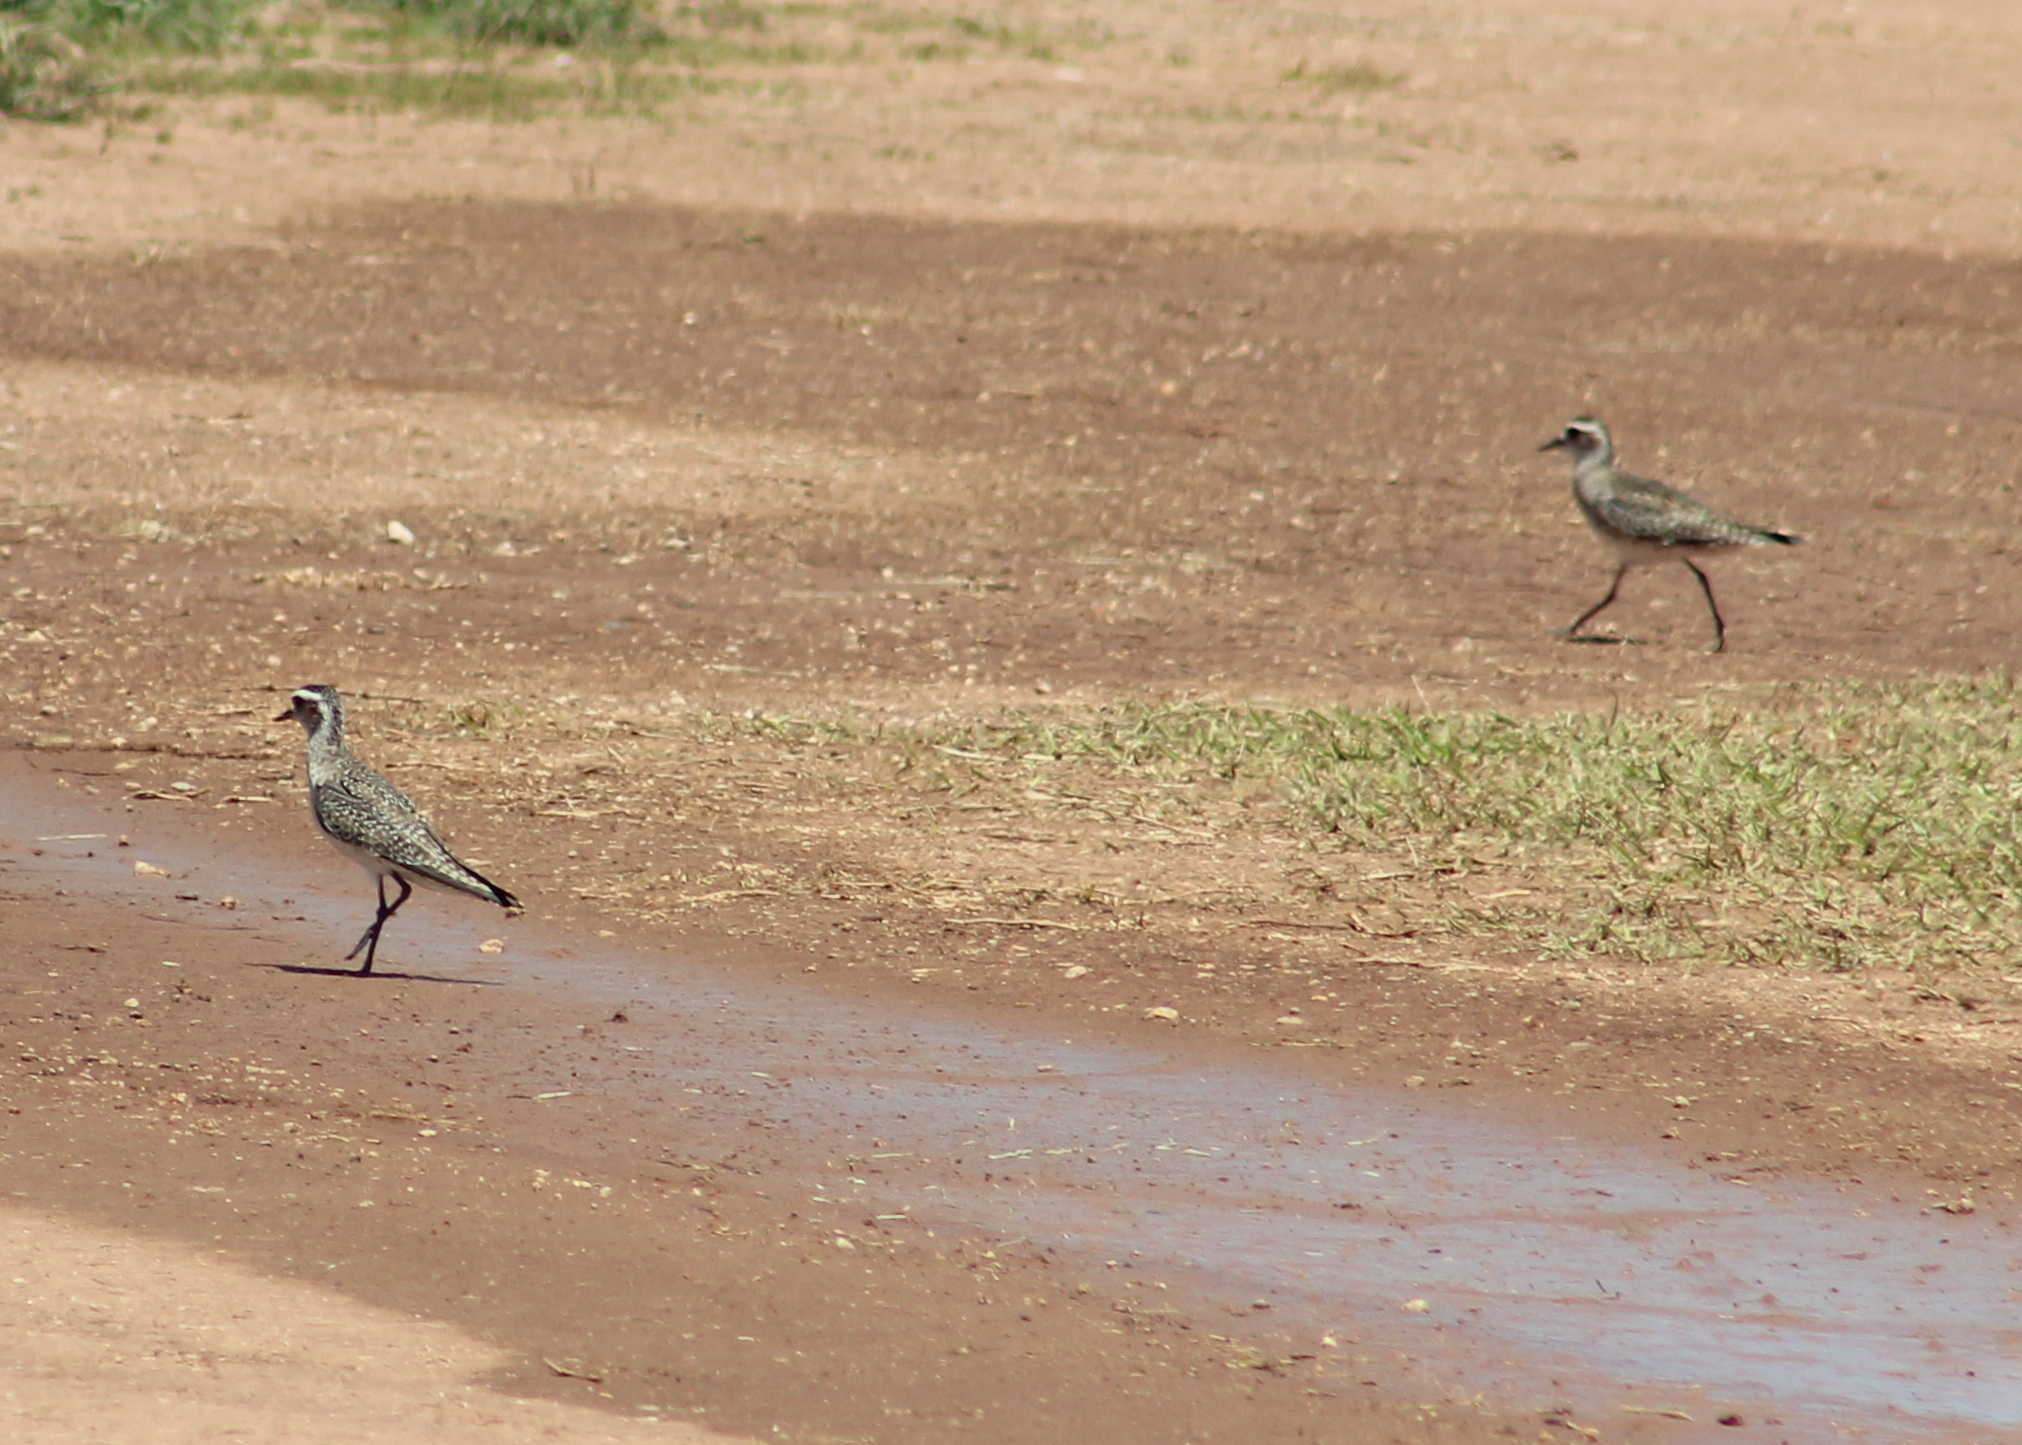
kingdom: Animalia
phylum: Chordata
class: Aves
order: Charadriiformes
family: Charadriidae
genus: Pluvialis
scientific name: Pluvialis dominica
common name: American golden plover
